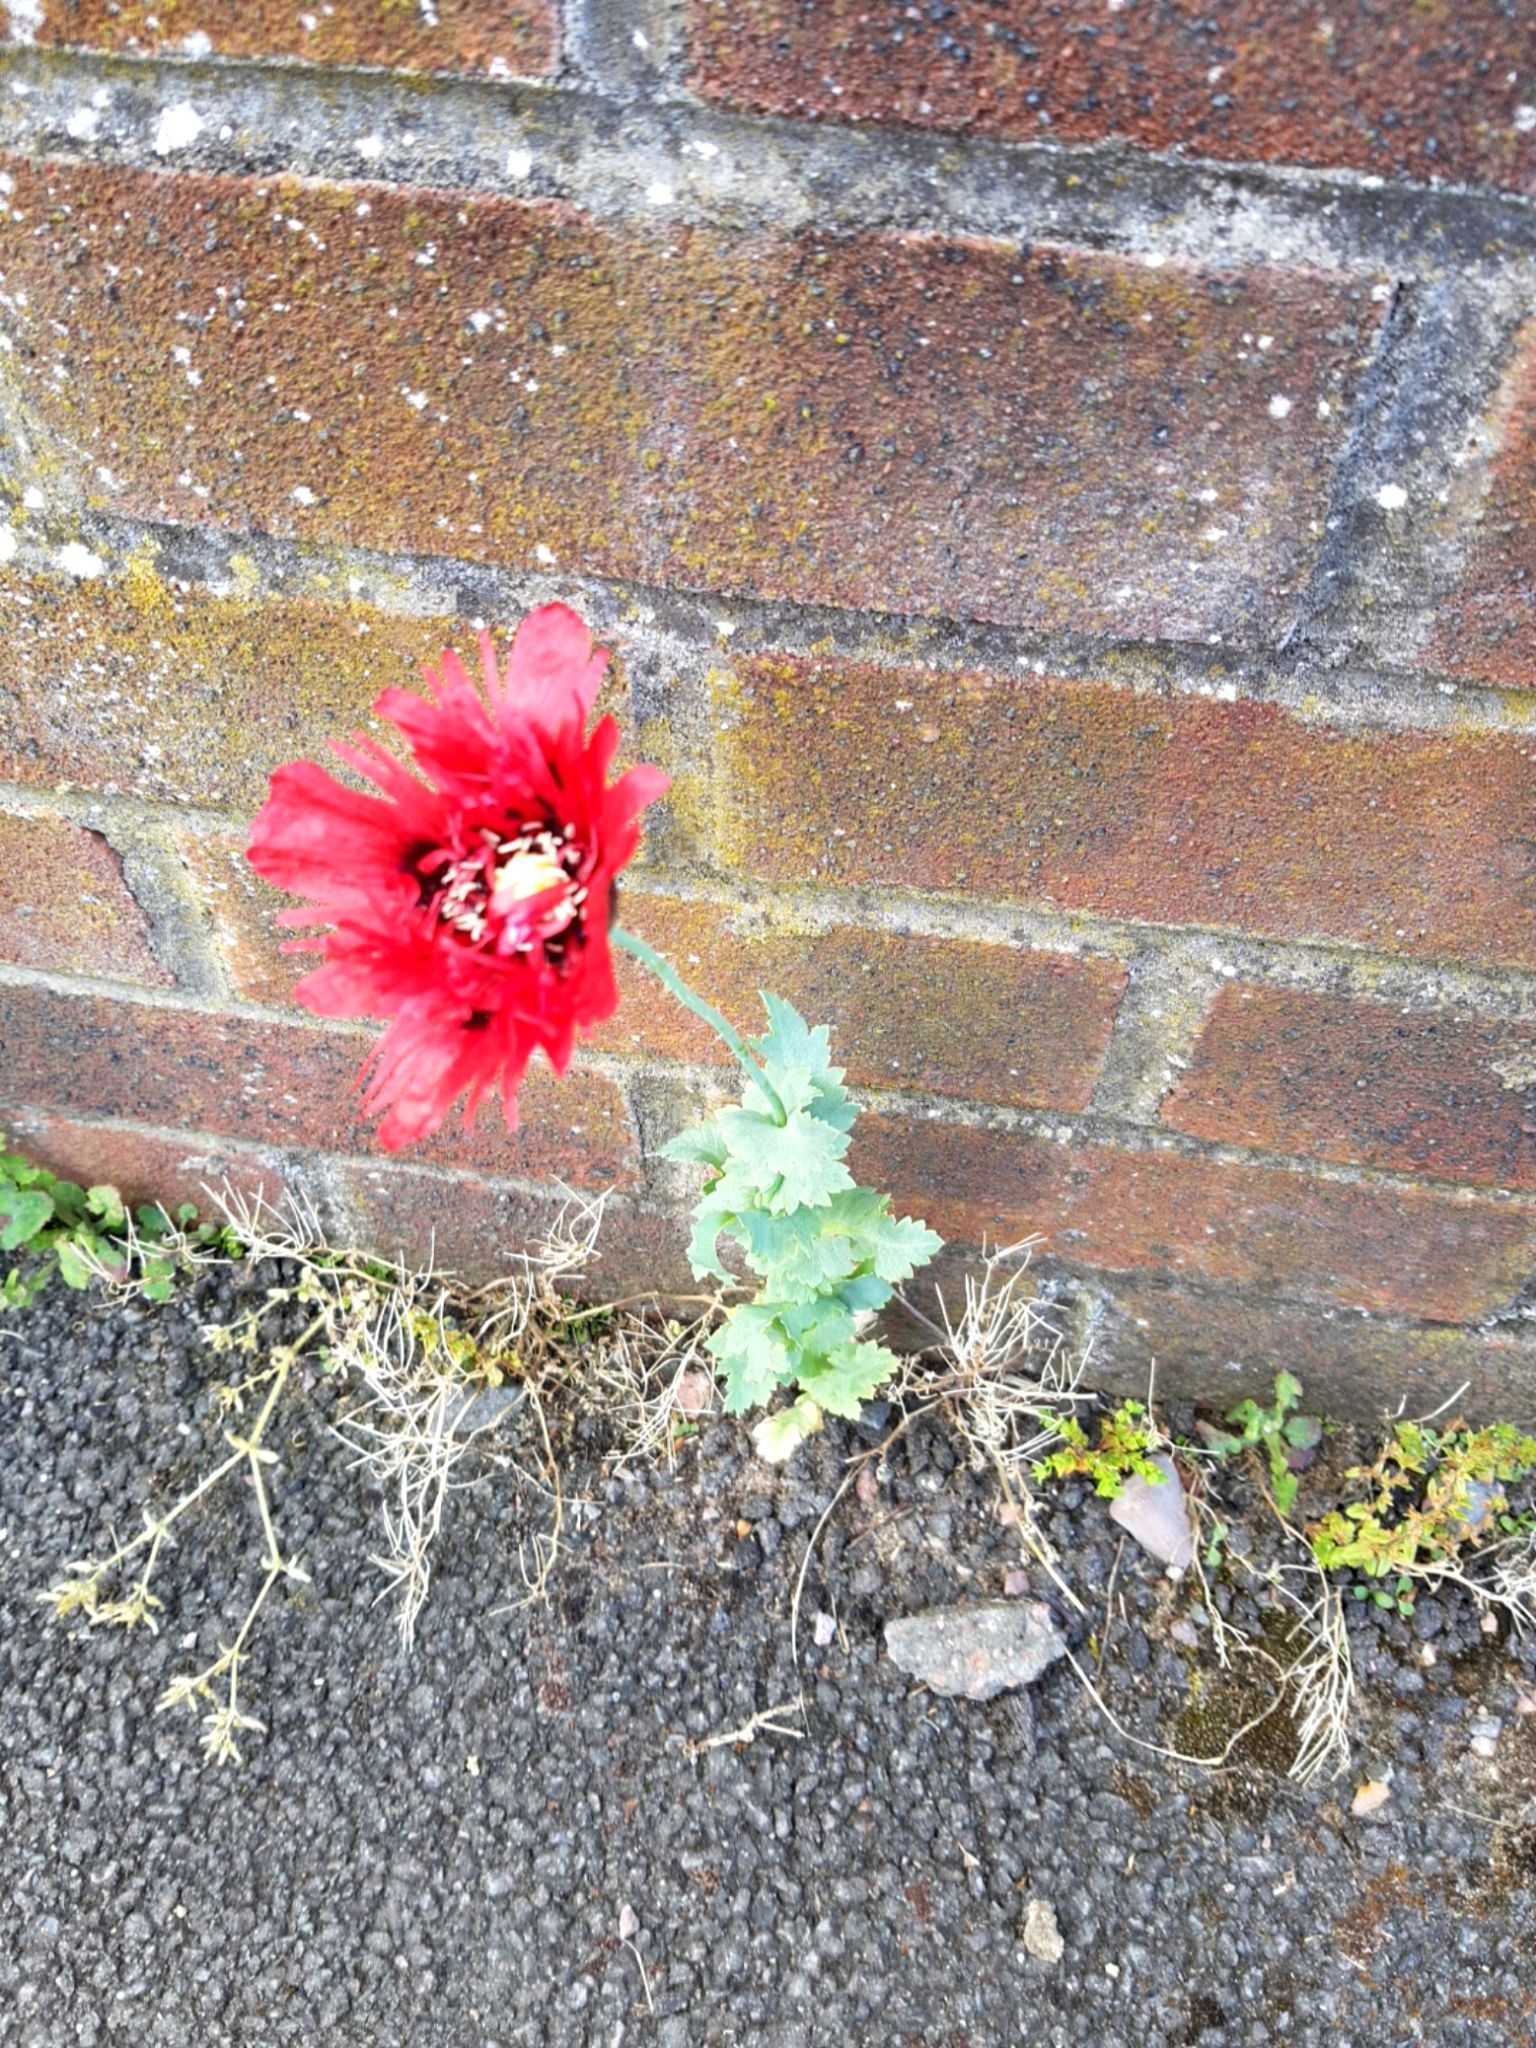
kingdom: Plantae
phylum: Tracheophyta
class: Magnoliopsida
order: Ranunculales
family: Papaveraceae
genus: Papaver
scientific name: Papaver somniferum
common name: Opium poppy
